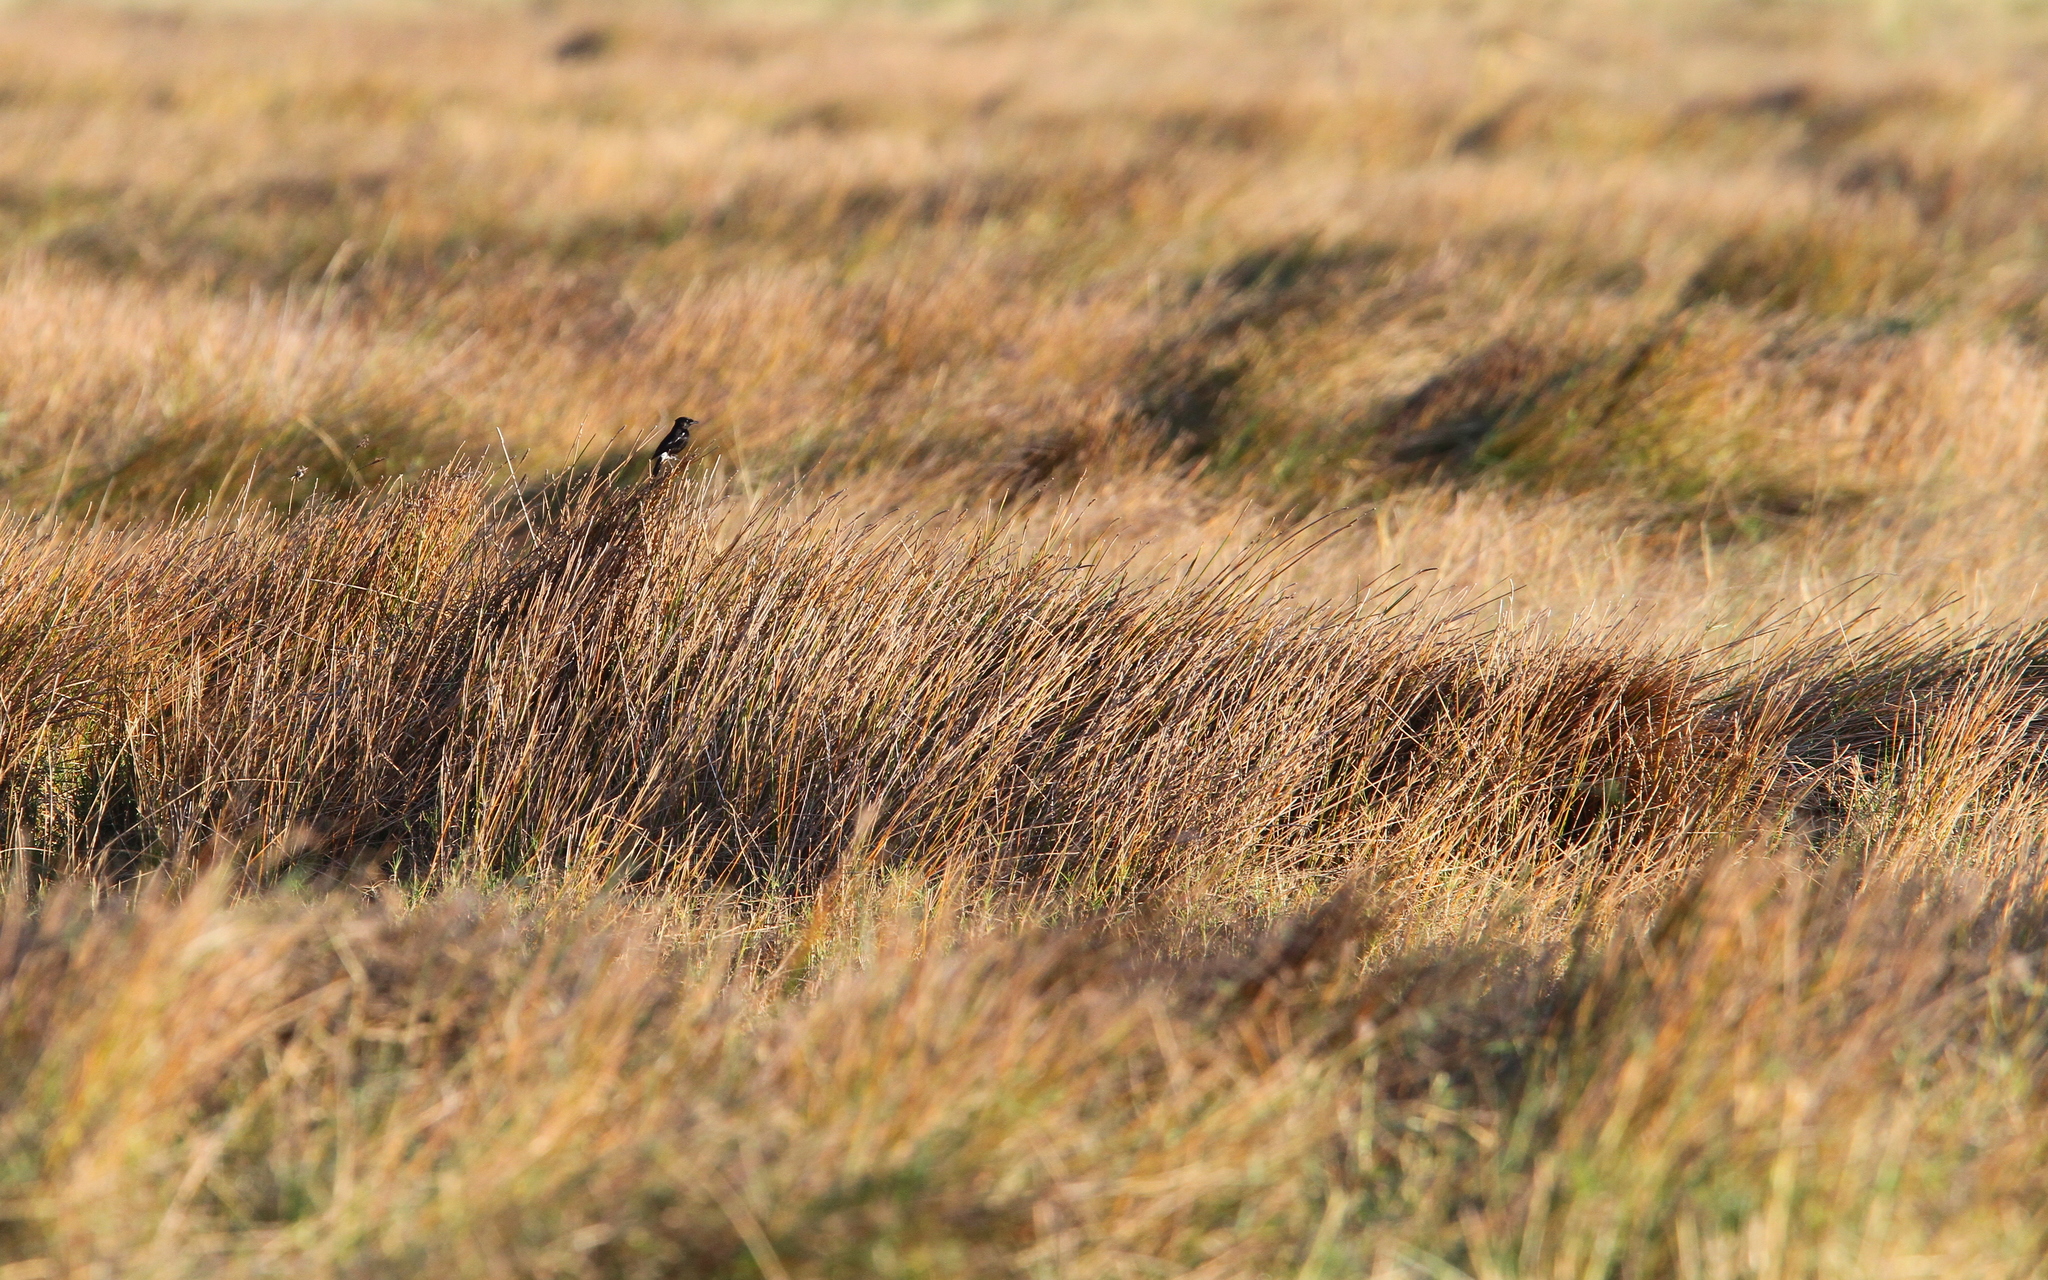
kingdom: Animalia
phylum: Chordata
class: Aves
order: Passeriformes
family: Muscicapidae
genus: Saxicola
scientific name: Saxicola caprata
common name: Pied bush chat
